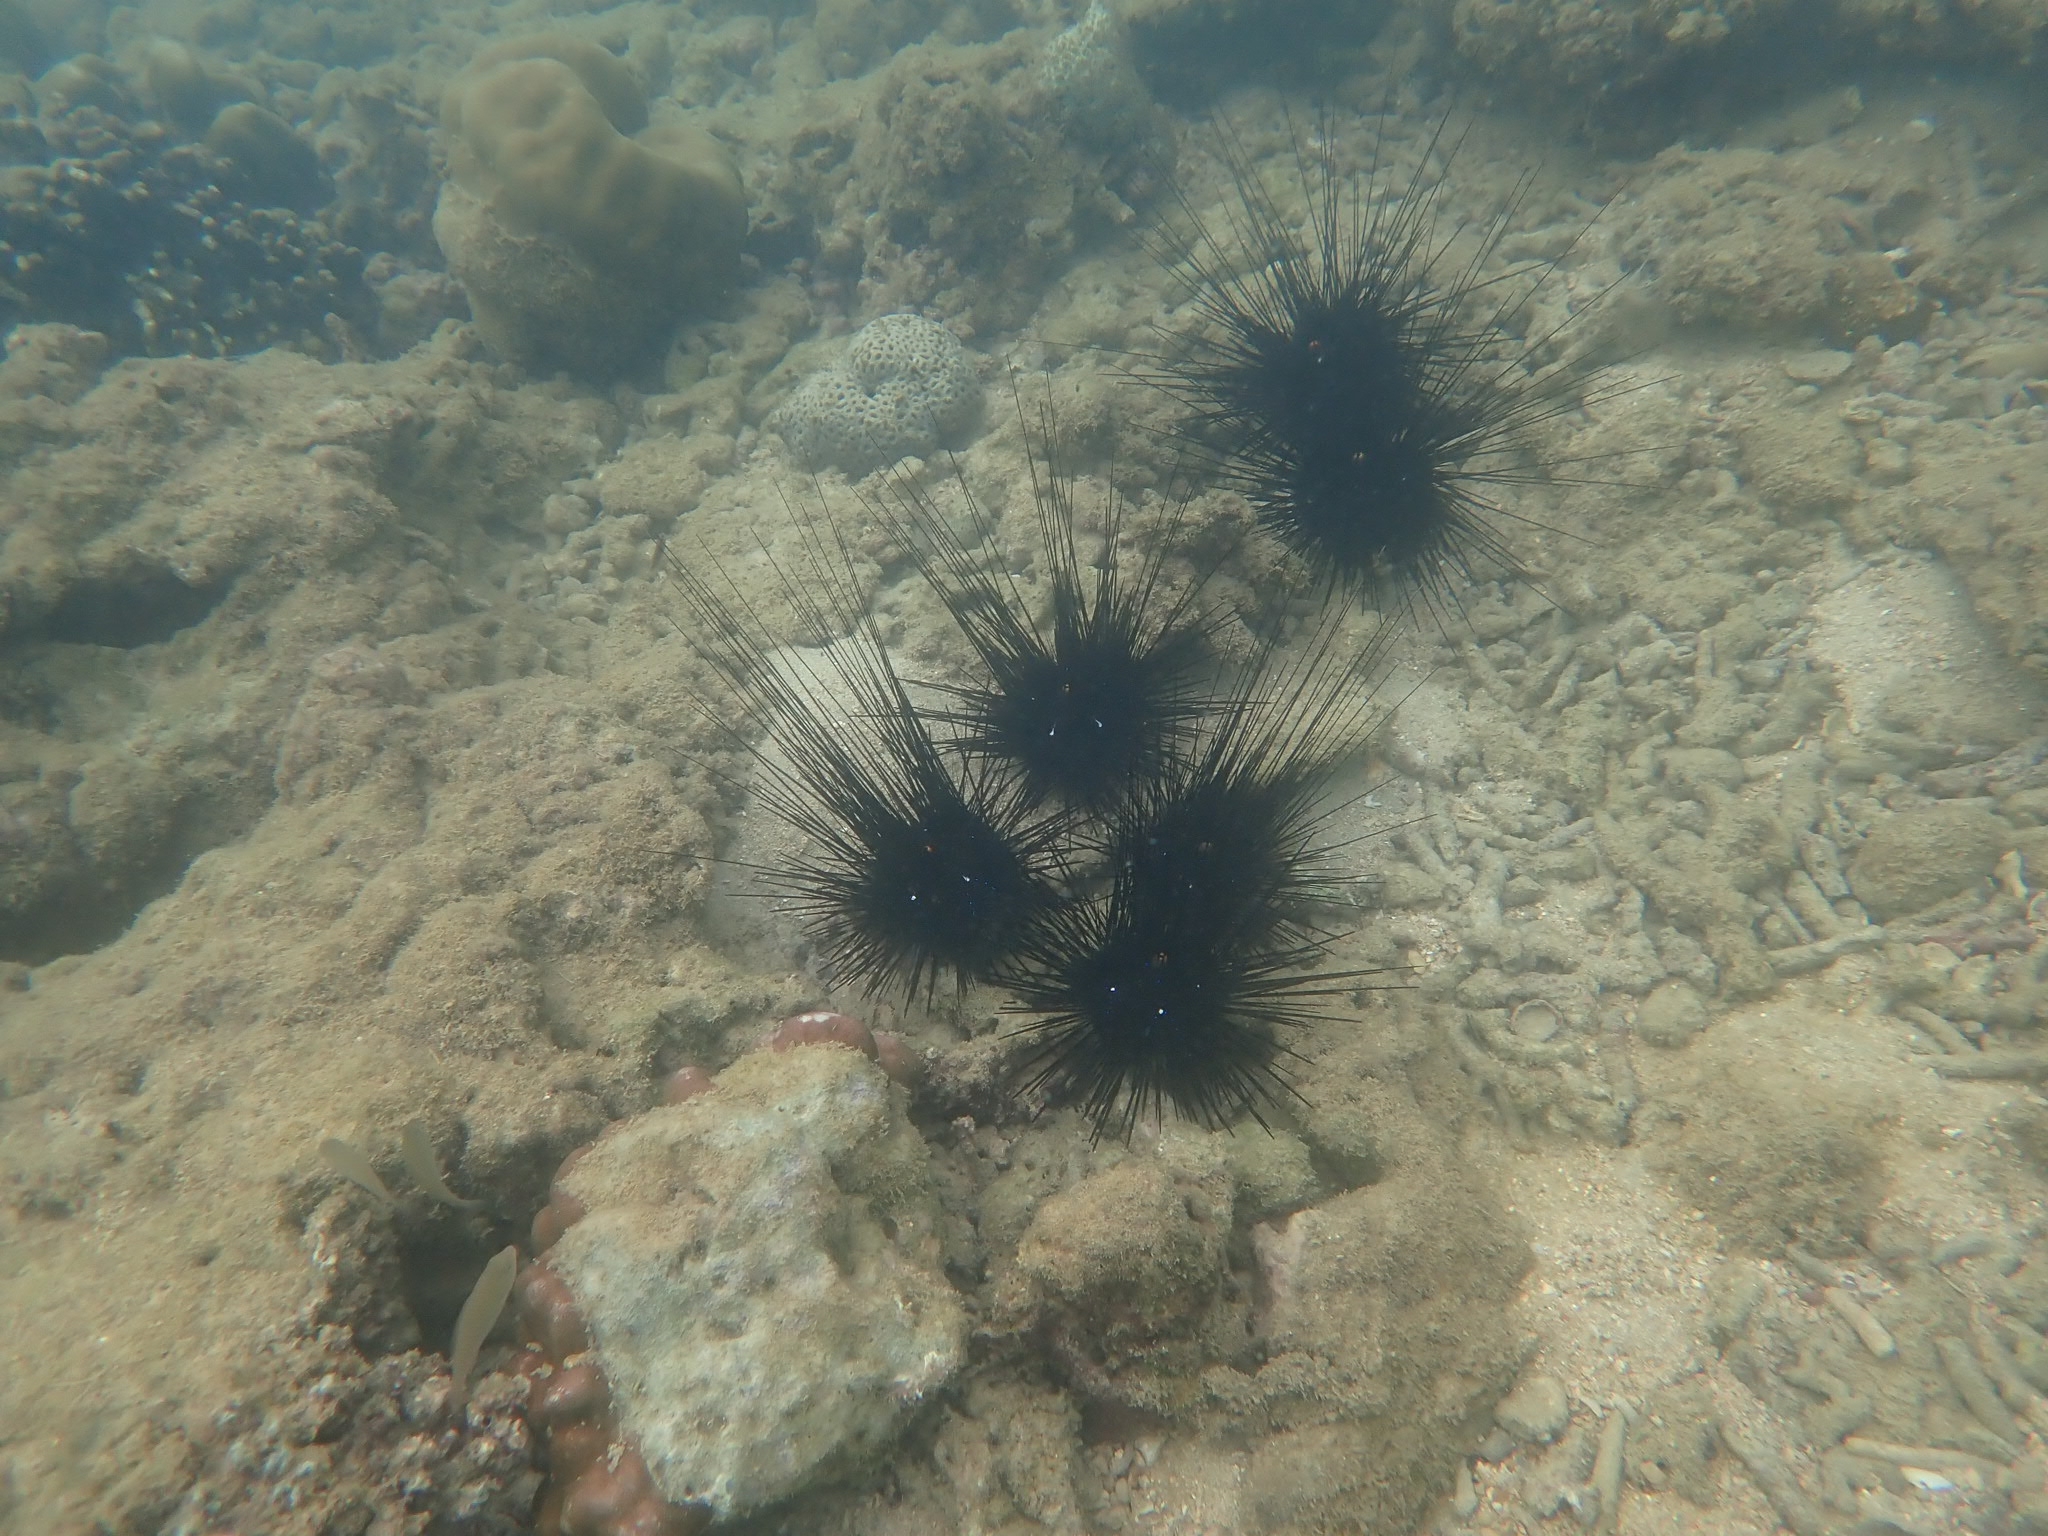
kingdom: Animalia
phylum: Echinodermata
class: Echinoidea
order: Diadematoida
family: Diadematidae
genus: Diadema
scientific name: Diadema setosum
